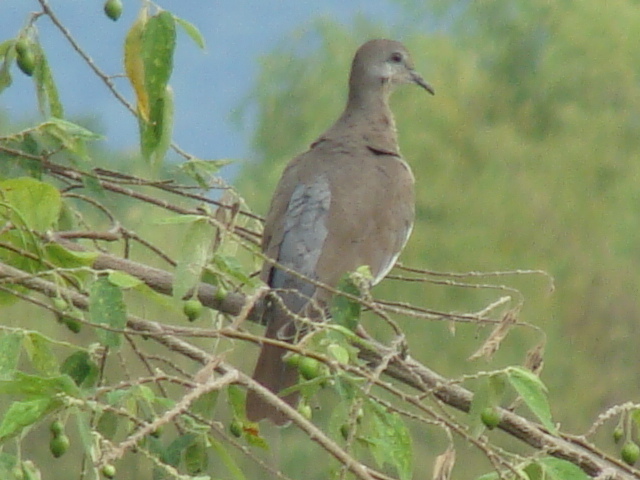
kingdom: Animalia
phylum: Chordata
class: Aves
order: Columbiformes
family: Columbidae
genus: Zenaida
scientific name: Zenaida asiatica
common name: White-winged dove
